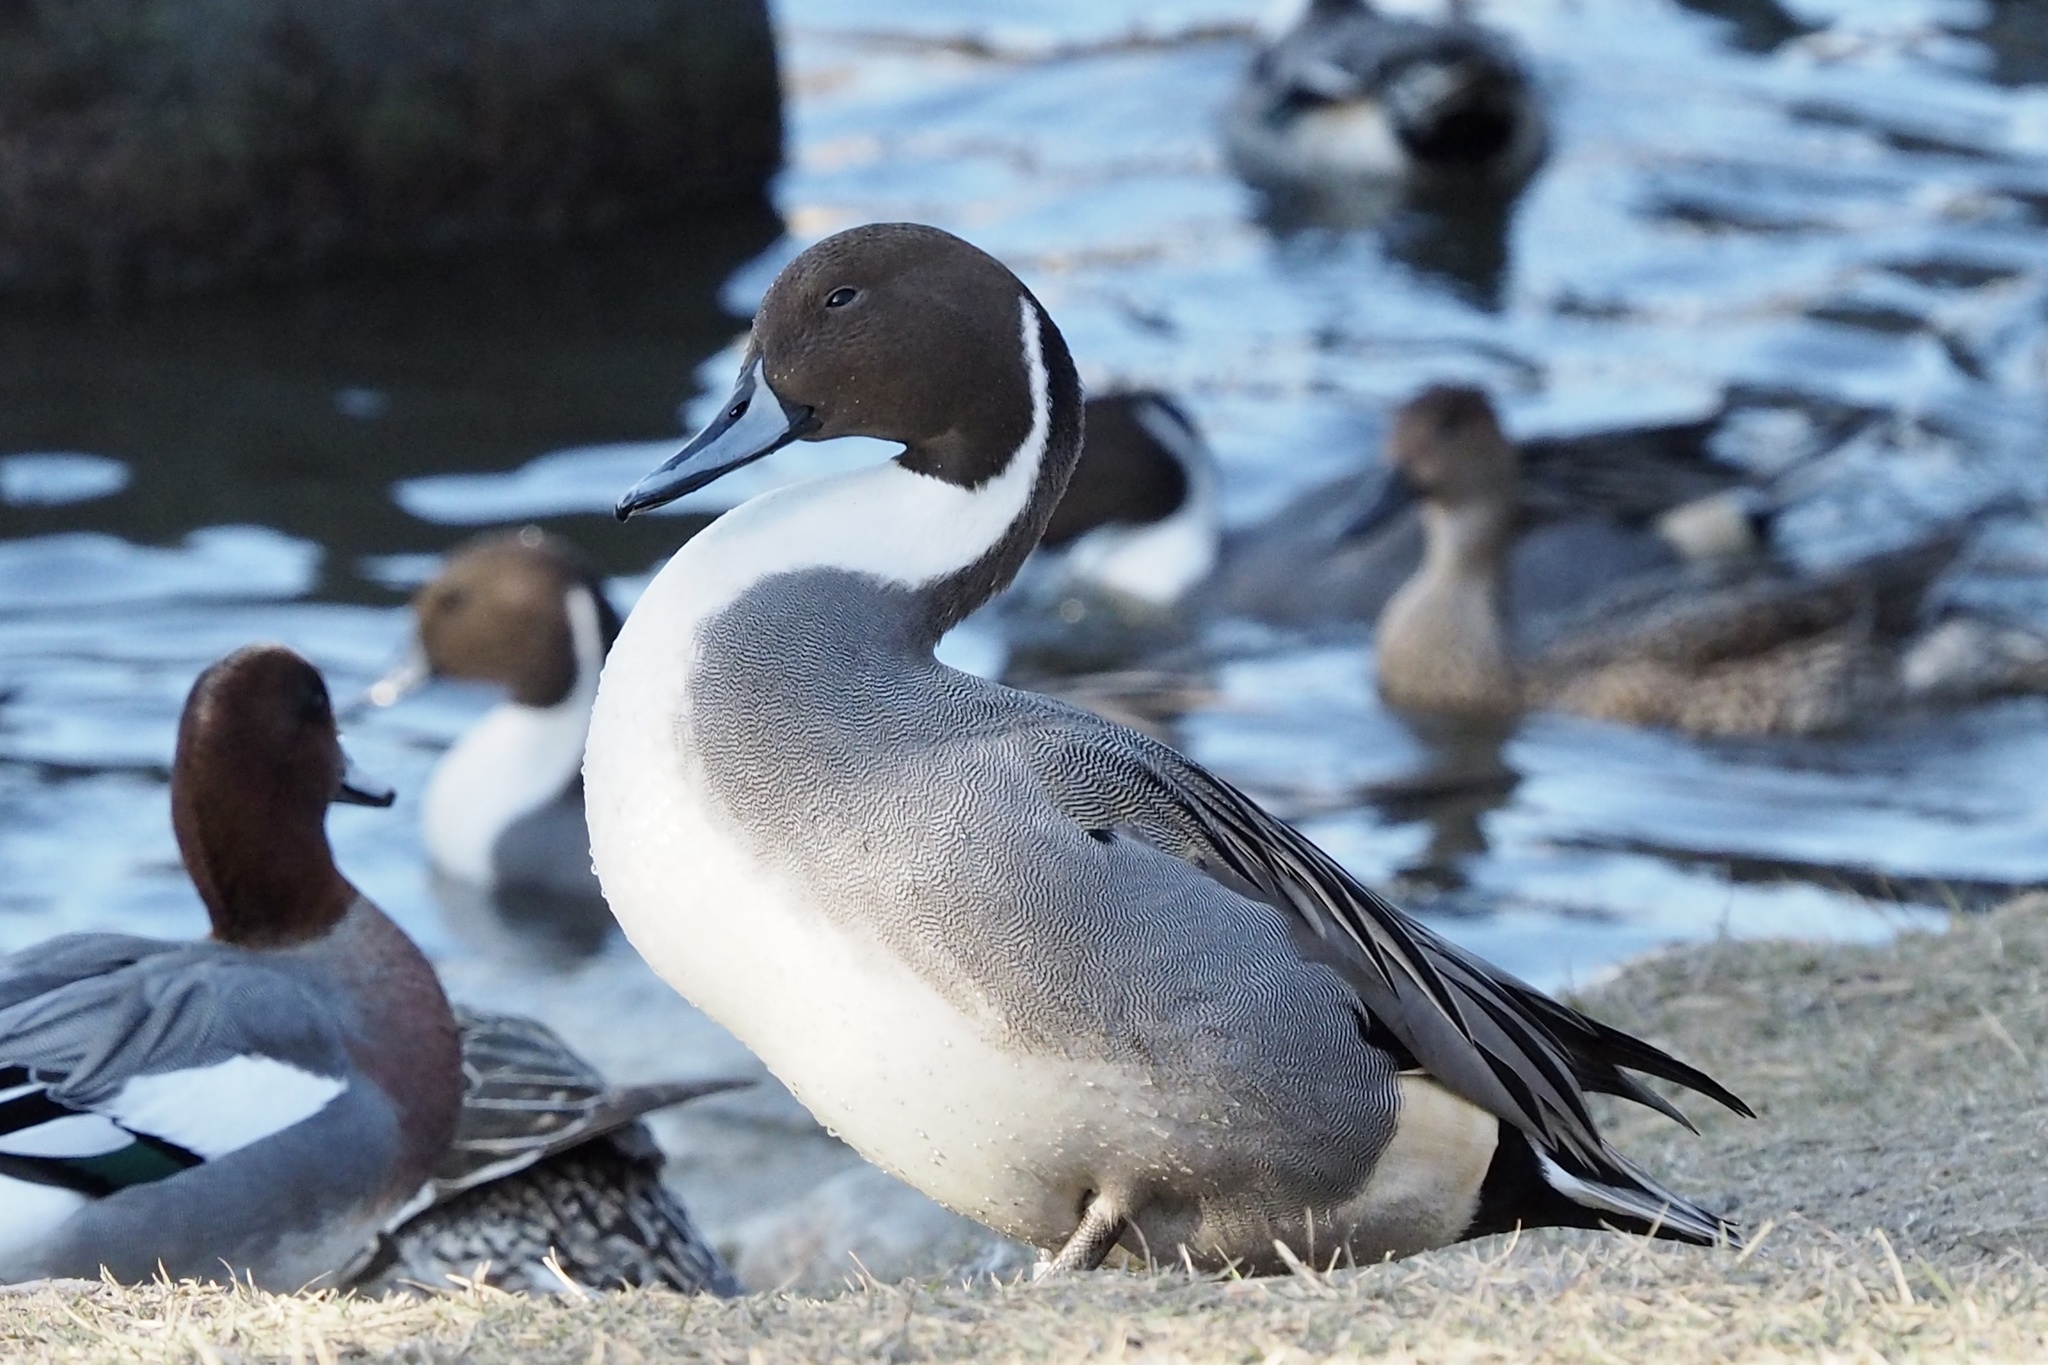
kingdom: Animalia
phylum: Chordata
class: Aves
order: Anseriformes
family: Anatidae
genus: Anas
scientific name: Anas acuta
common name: Northern pintail
